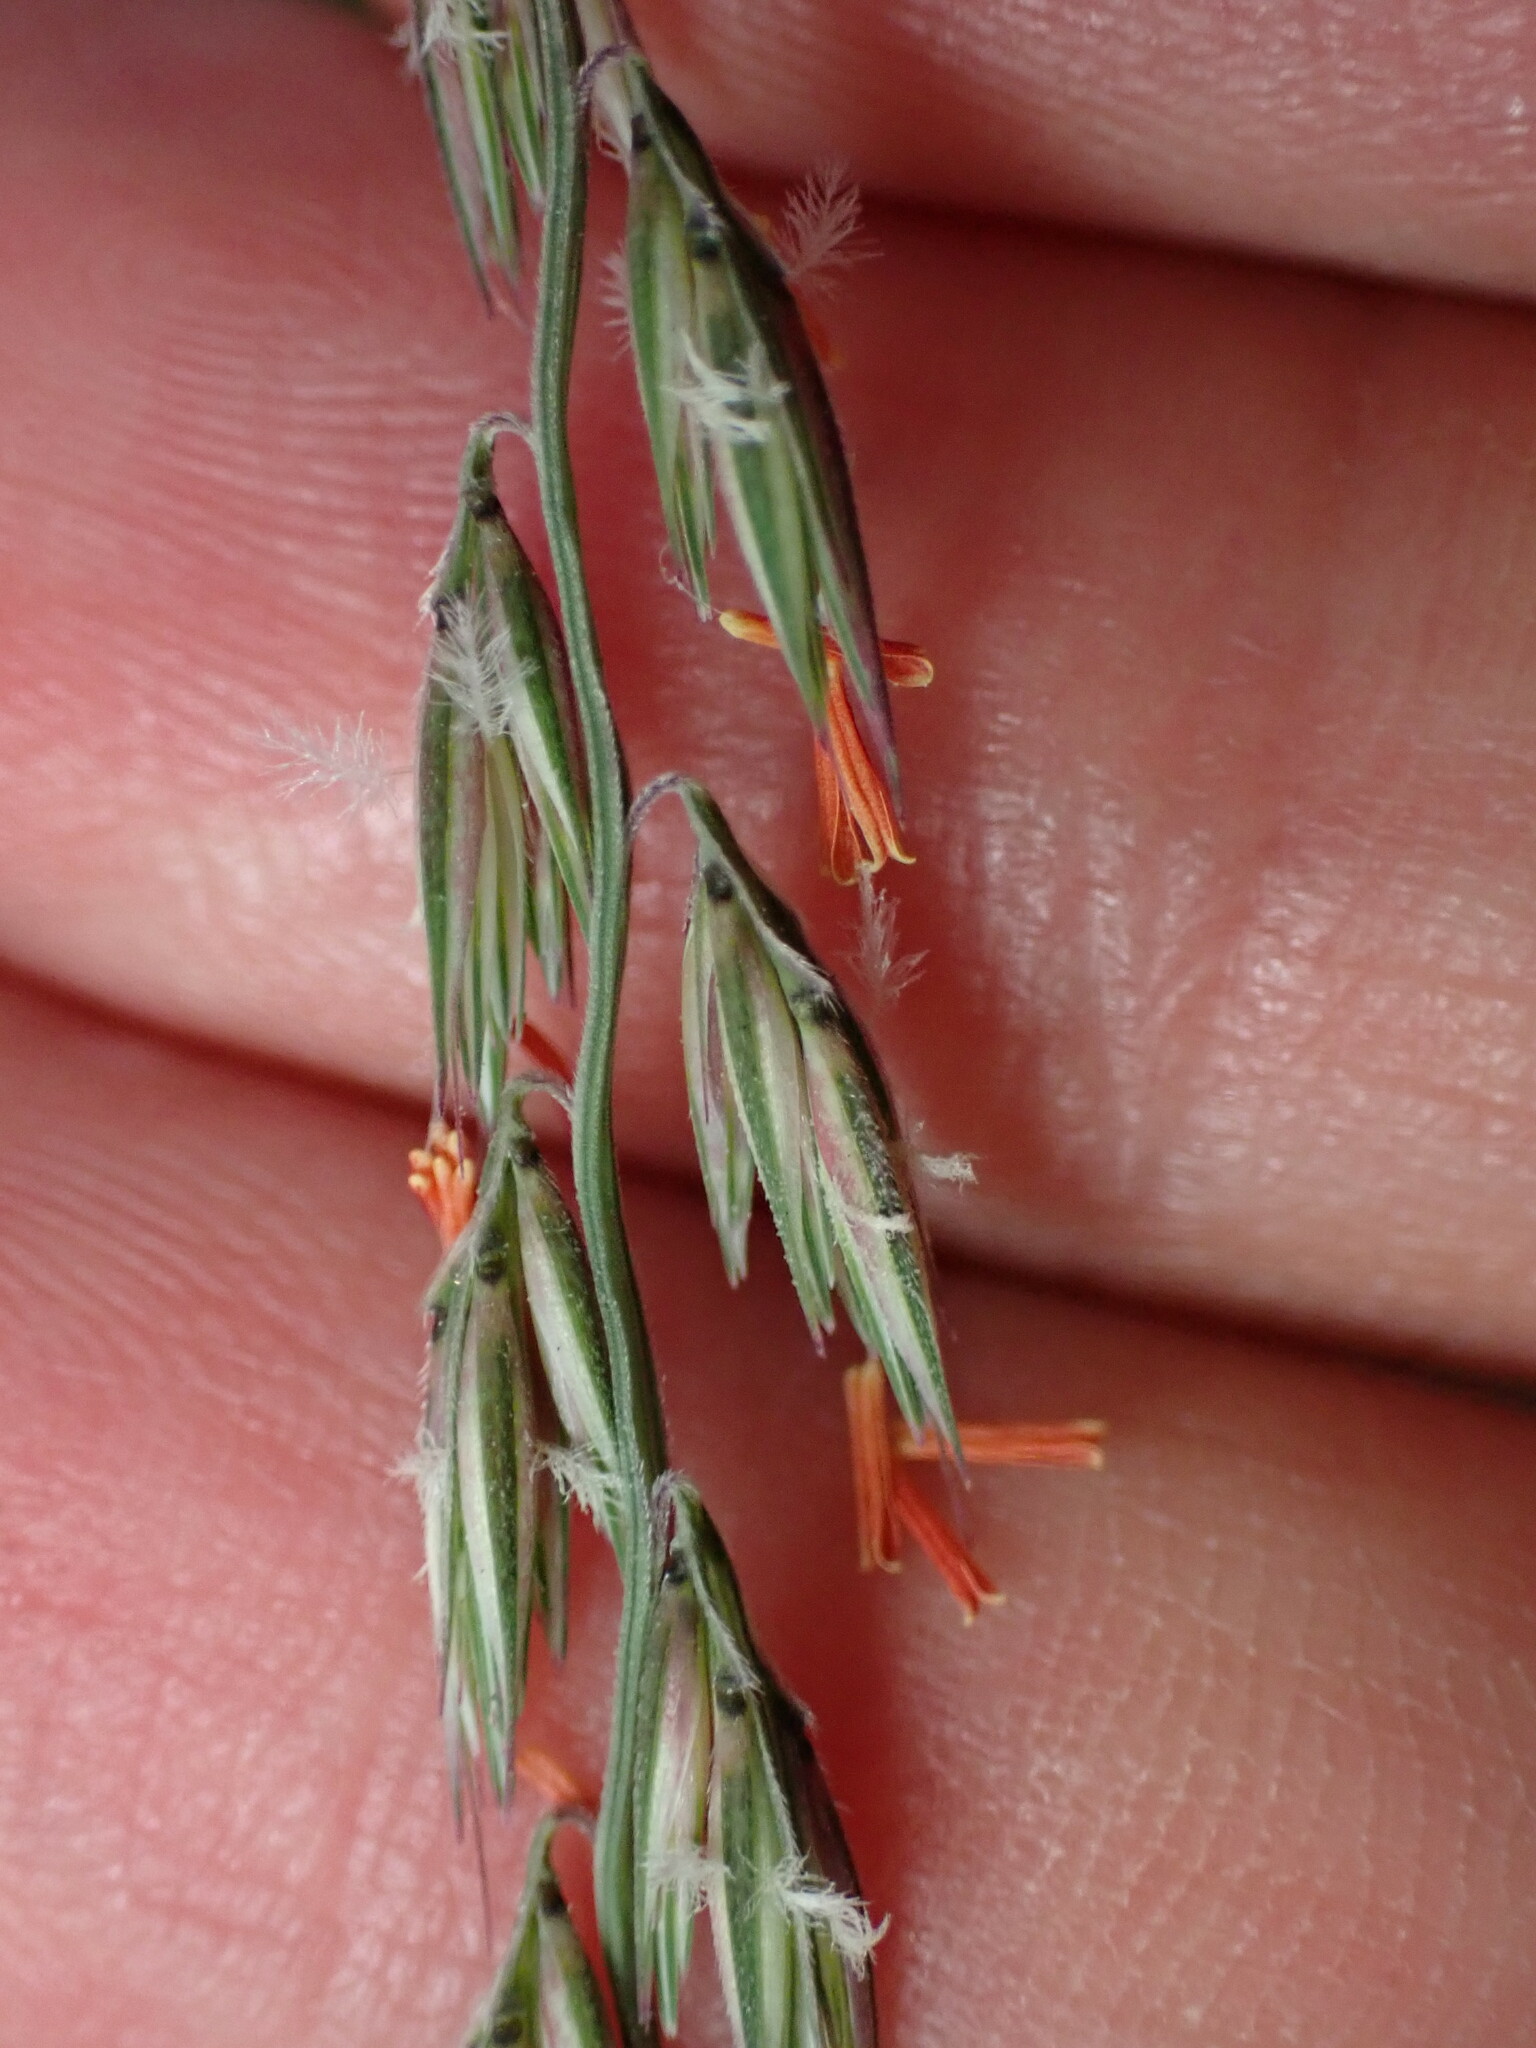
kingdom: Plantae
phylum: Tracheophyta
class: Liliopsida
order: Poales
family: Poaceae
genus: Bouteloua
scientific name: Bouteloua curtipendula
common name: Side-oats grama
